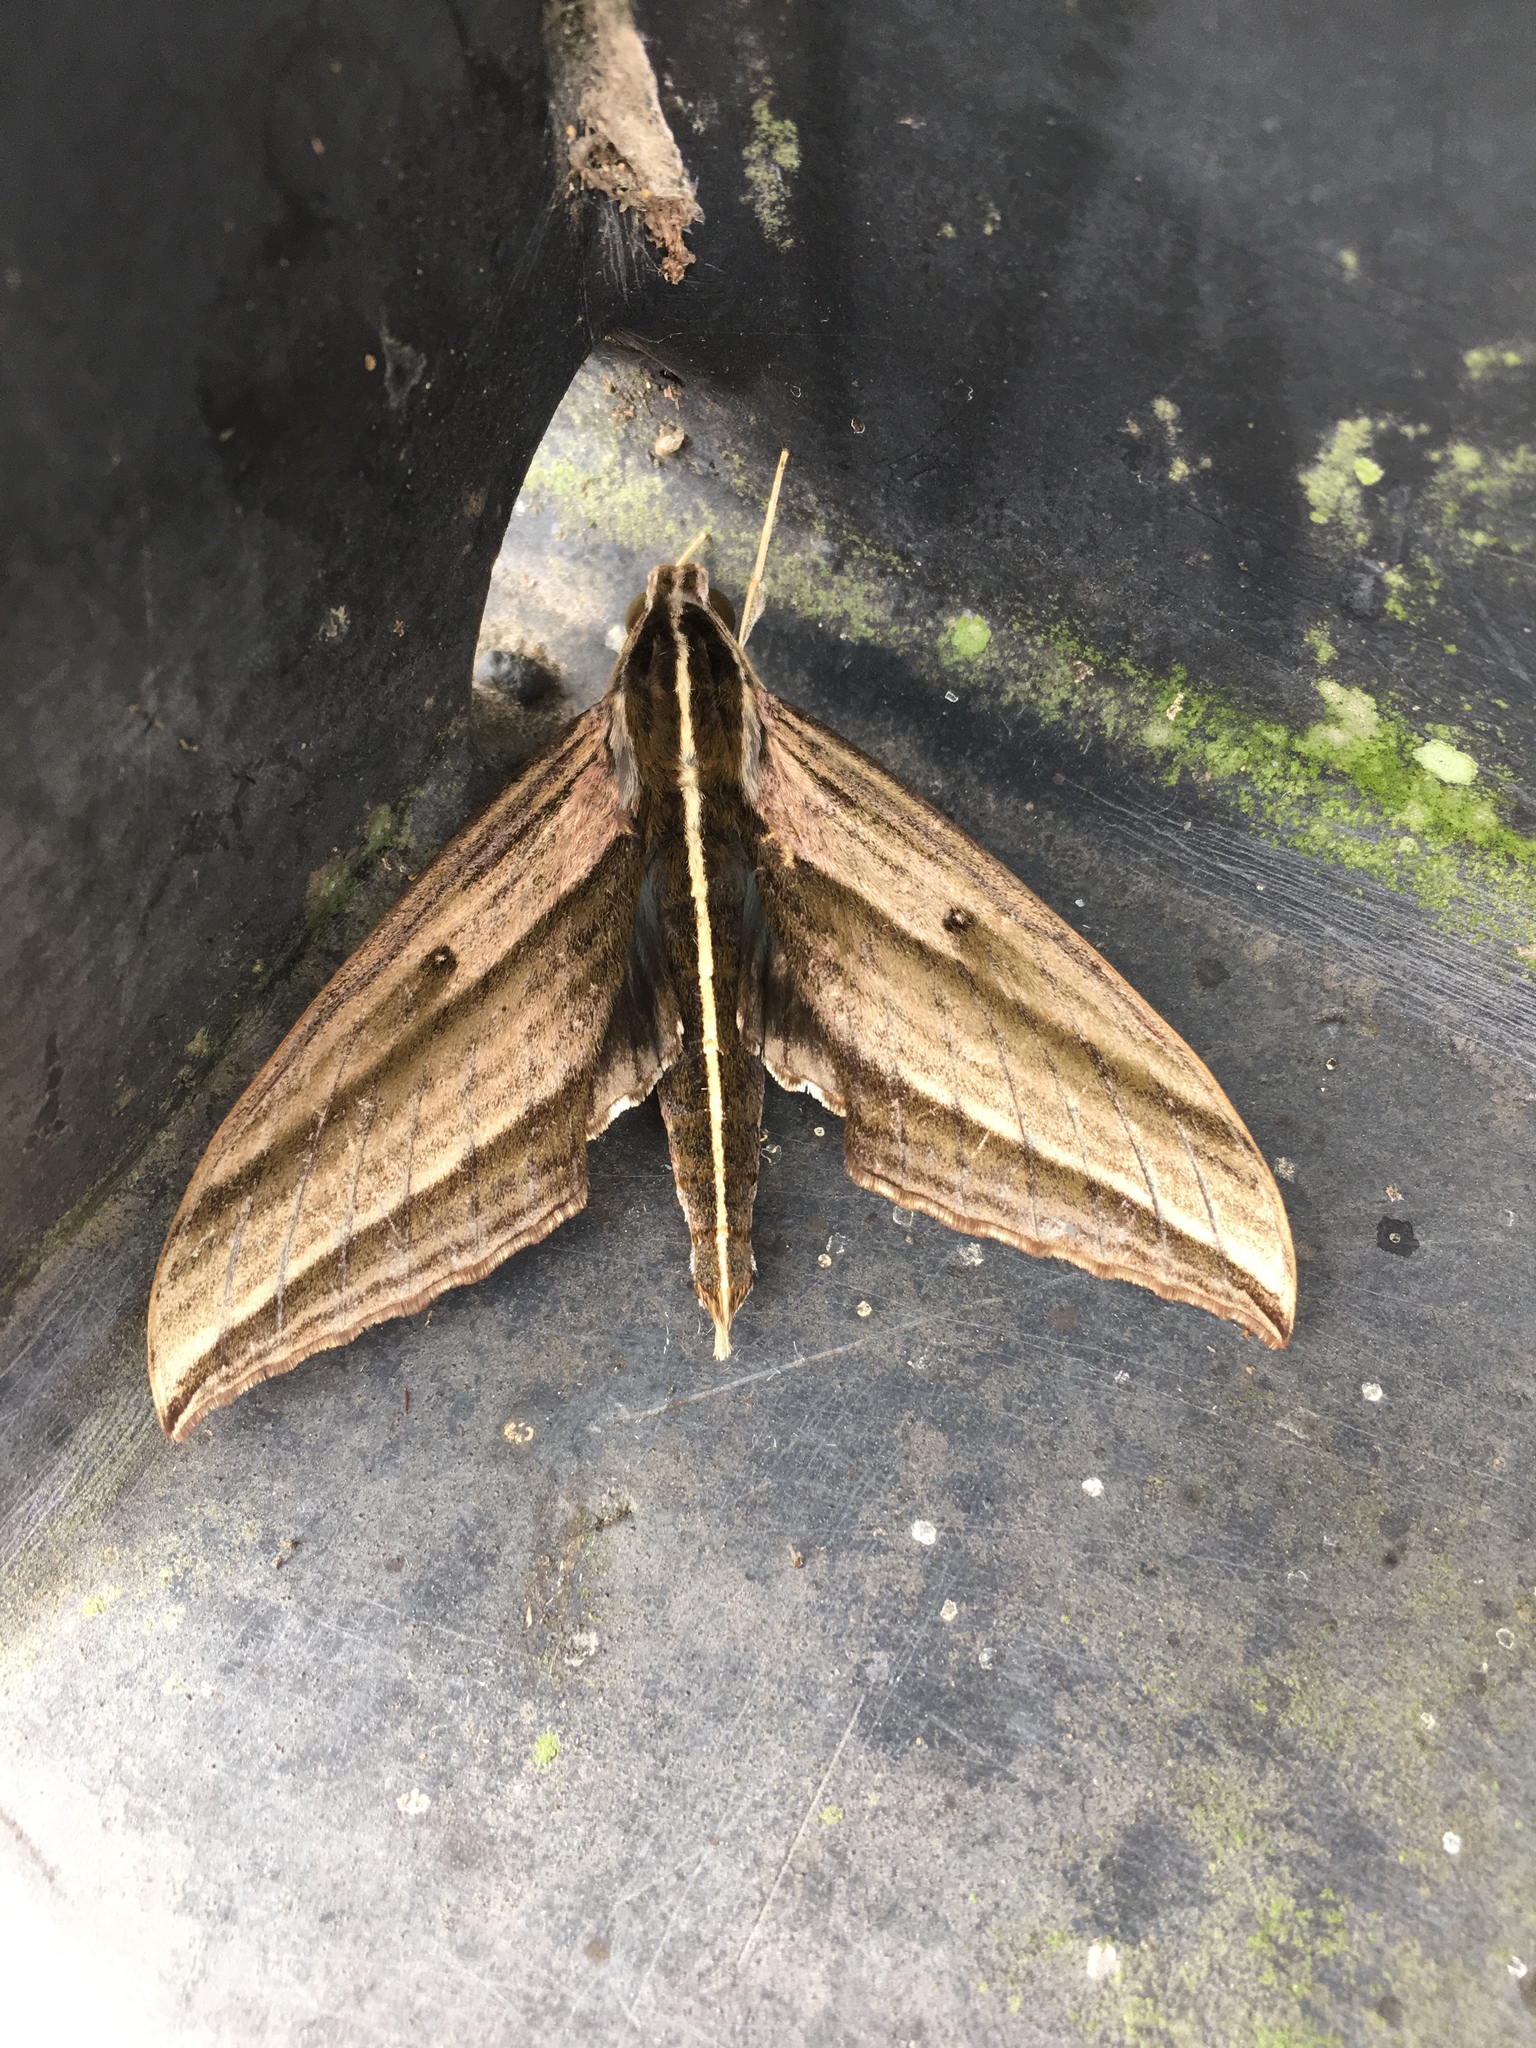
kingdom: Animalia
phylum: Arthropoda
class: Insecta
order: Lepidoptera
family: Sphingidae
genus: Elibia
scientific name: Elibia dolichus
